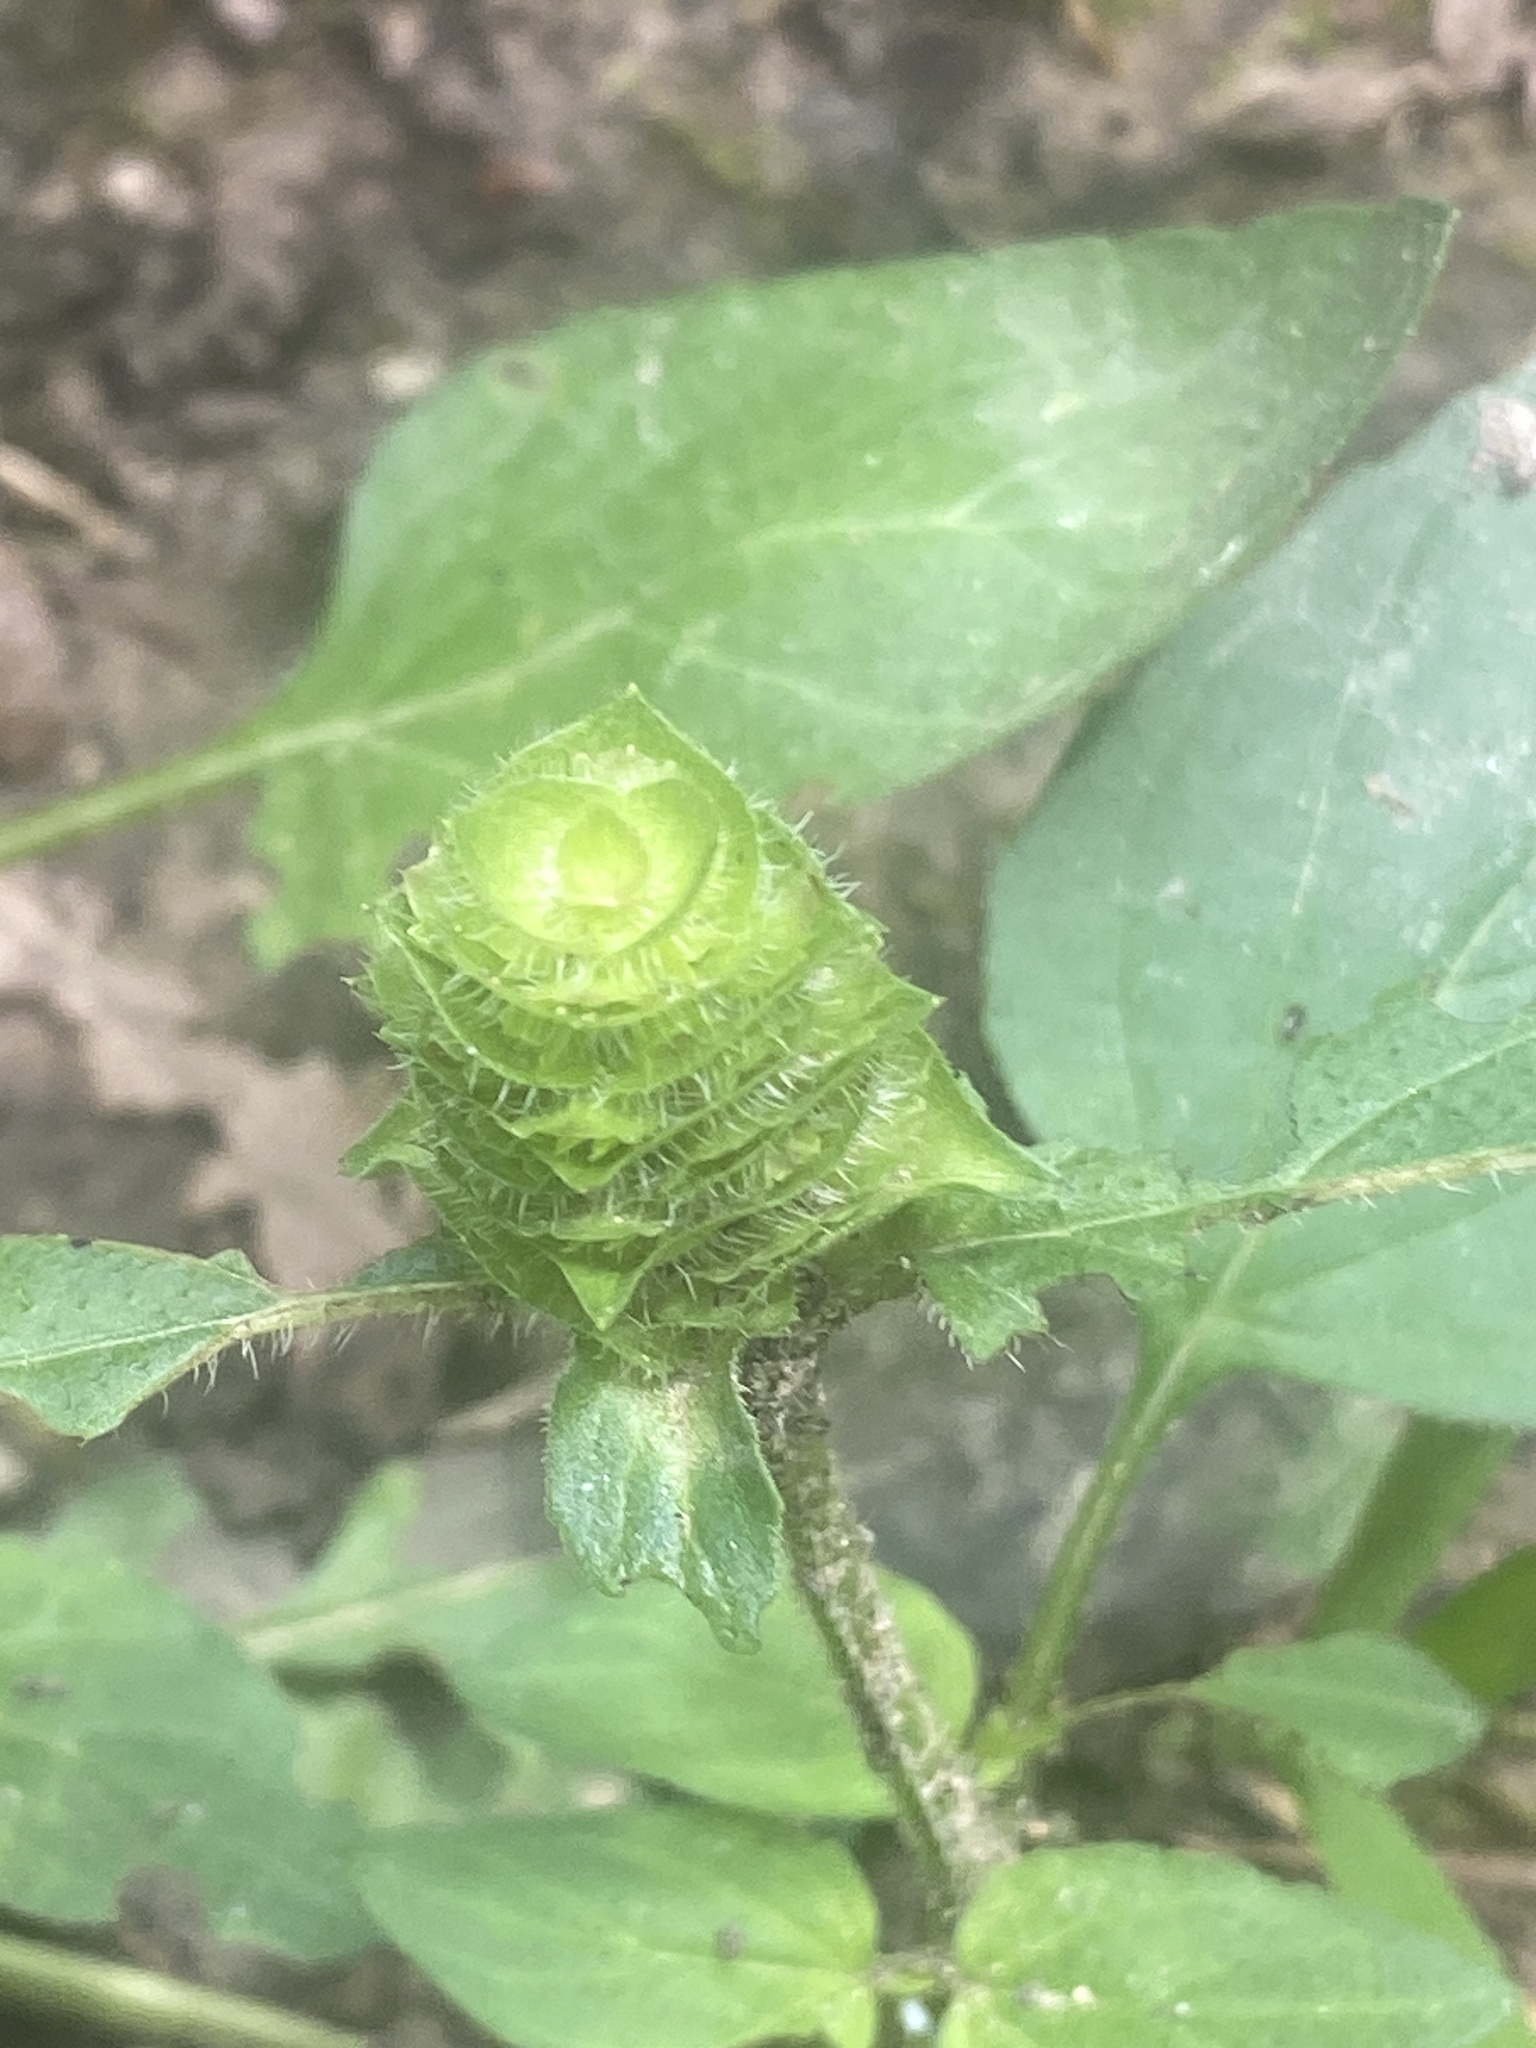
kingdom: Plantae
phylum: Tracheophyta
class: Magnoliopsida
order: Lamiales
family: Lamiaceae
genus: Prunella
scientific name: Prunella vulgaris
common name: Heal-all
